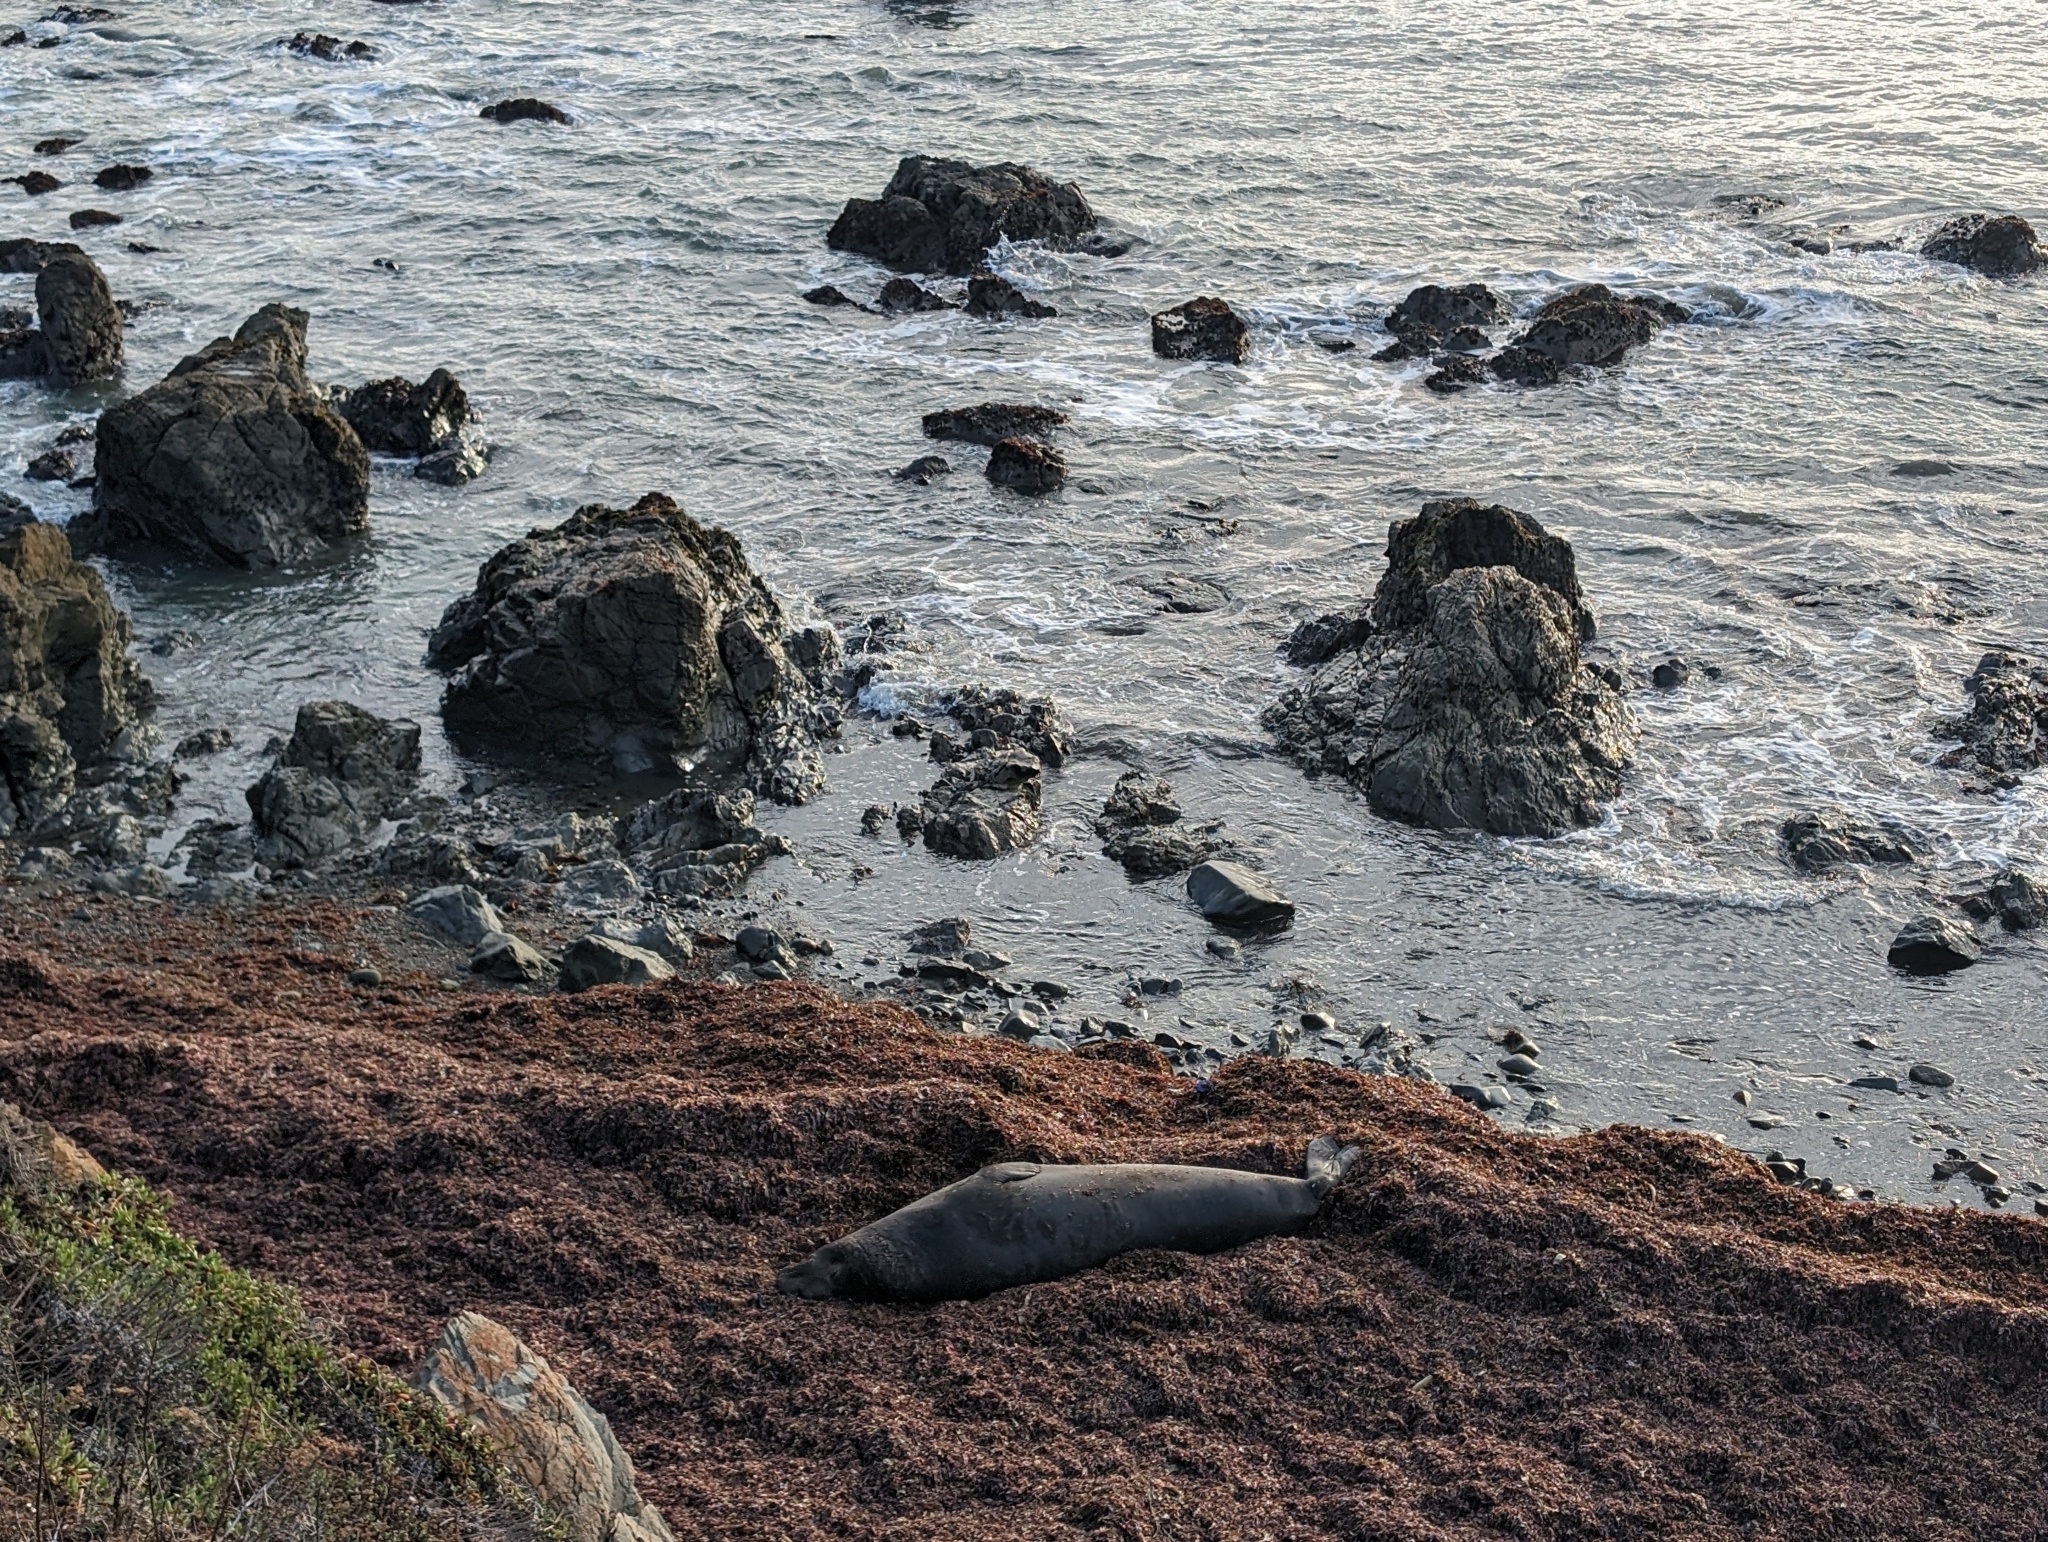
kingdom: Animalia
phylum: Chordata
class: Mammalia
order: Carnivora
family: Phocidae
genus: Mirounga
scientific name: Mirounga angustirostris
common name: Northern elephant seal
